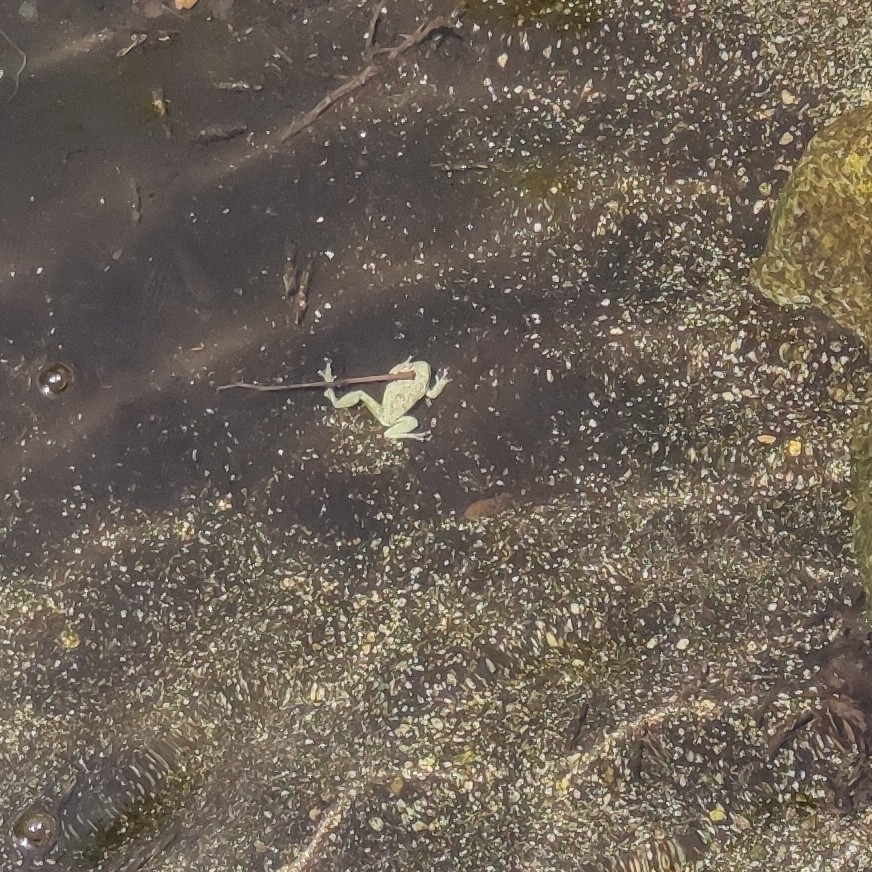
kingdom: Animalia
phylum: Chordata
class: Amphibia
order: Anura
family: Hylidae
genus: Pseudacris
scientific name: Pseudacris cadaverina
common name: California chorus frog
